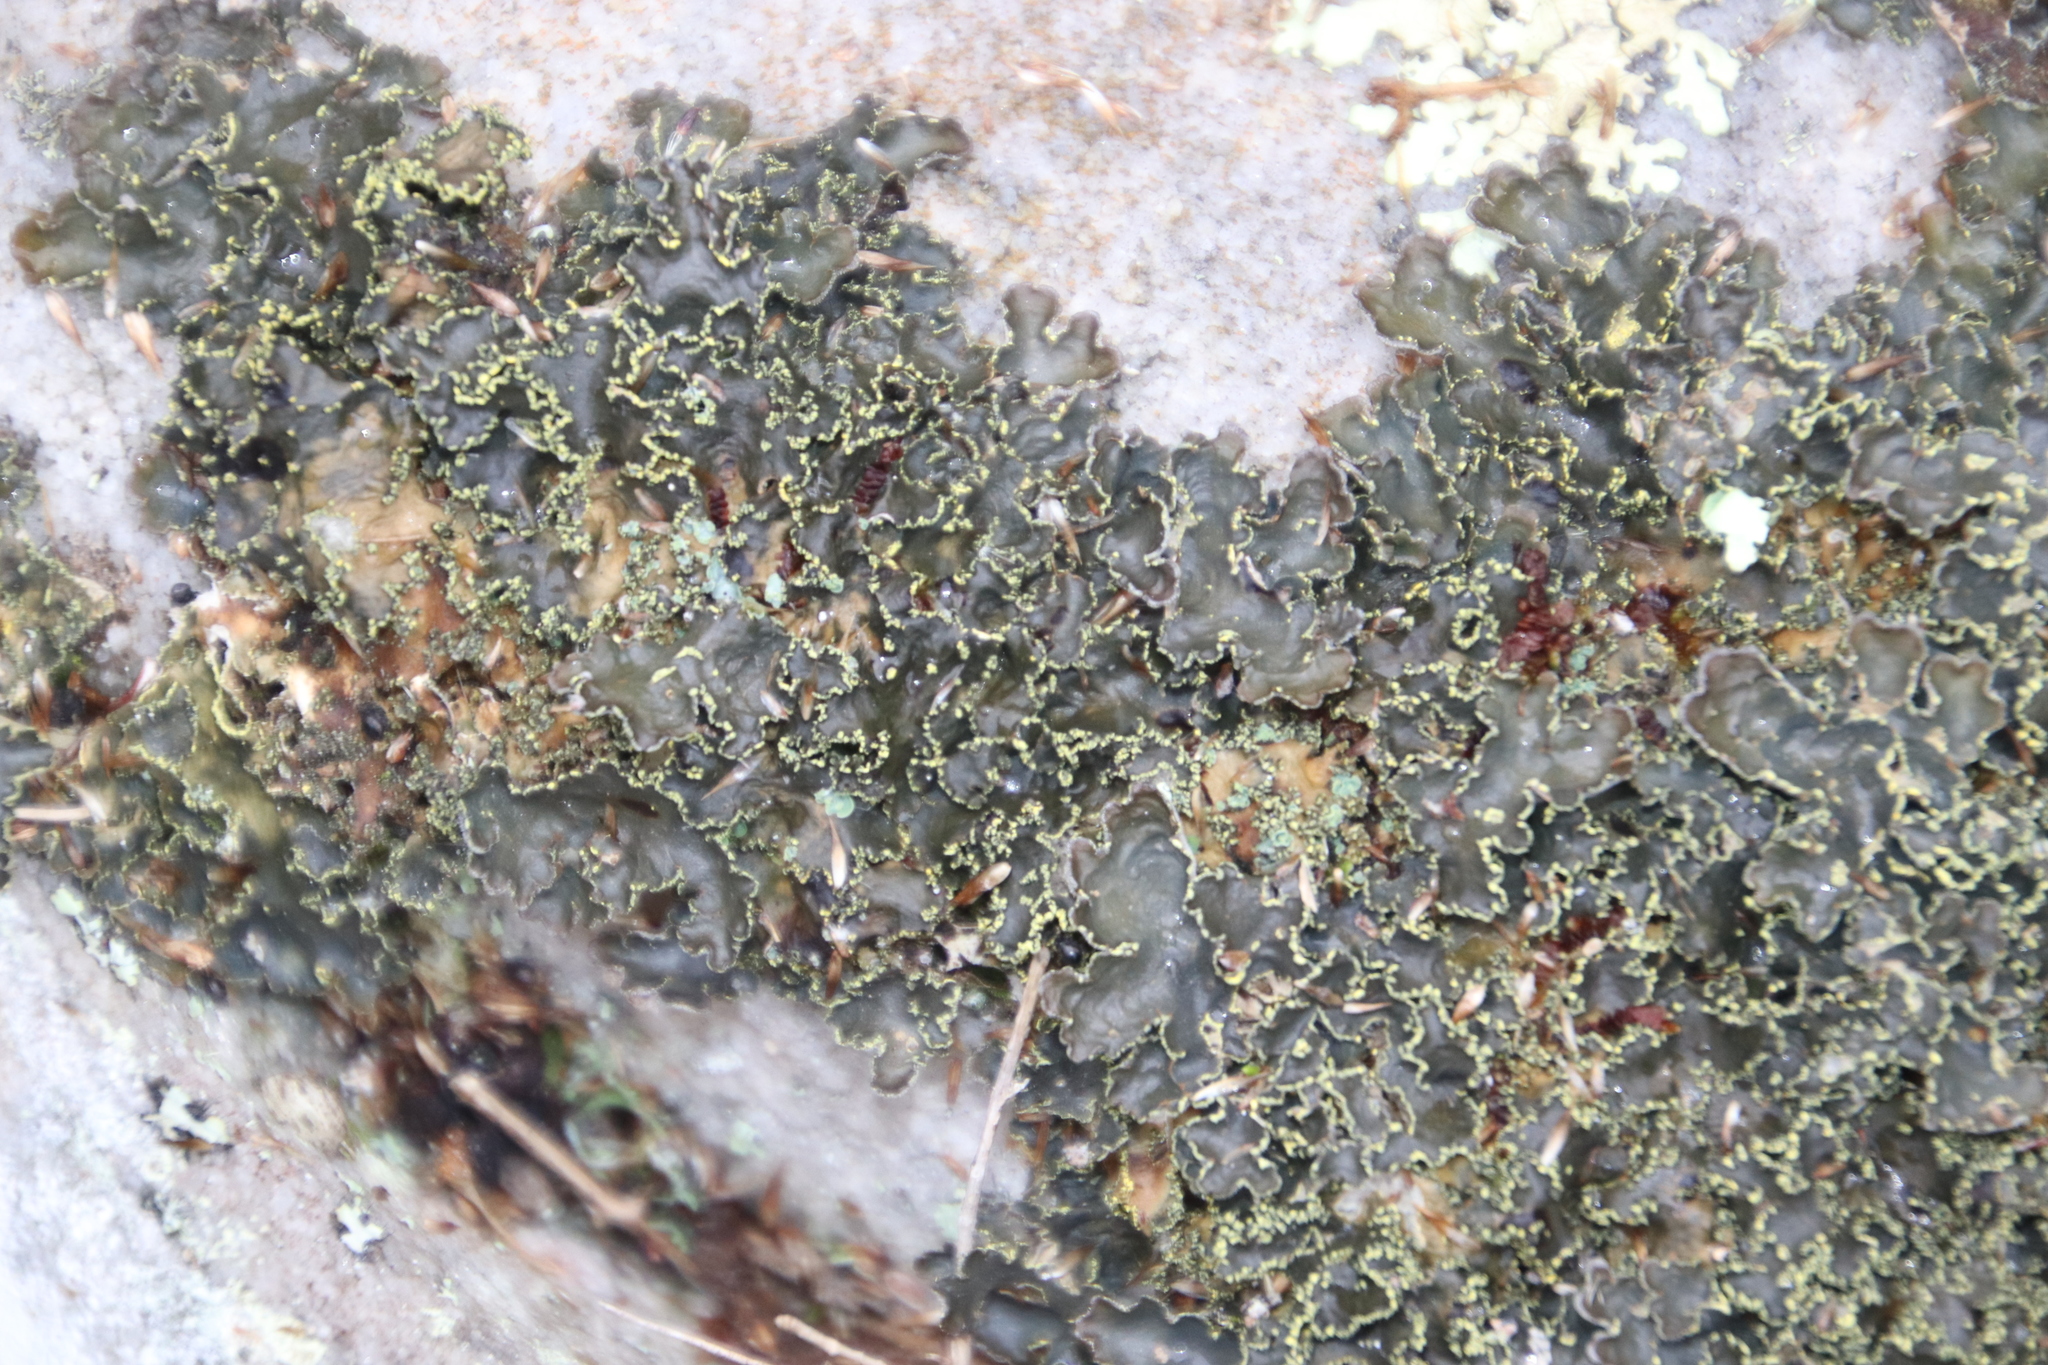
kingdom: Fungi
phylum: Ascomycota
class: Lecanoromycetes
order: Peltigerales
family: Lobariaceae
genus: Pseudocyphellaria
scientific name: Pseudocyphellaria aurata
